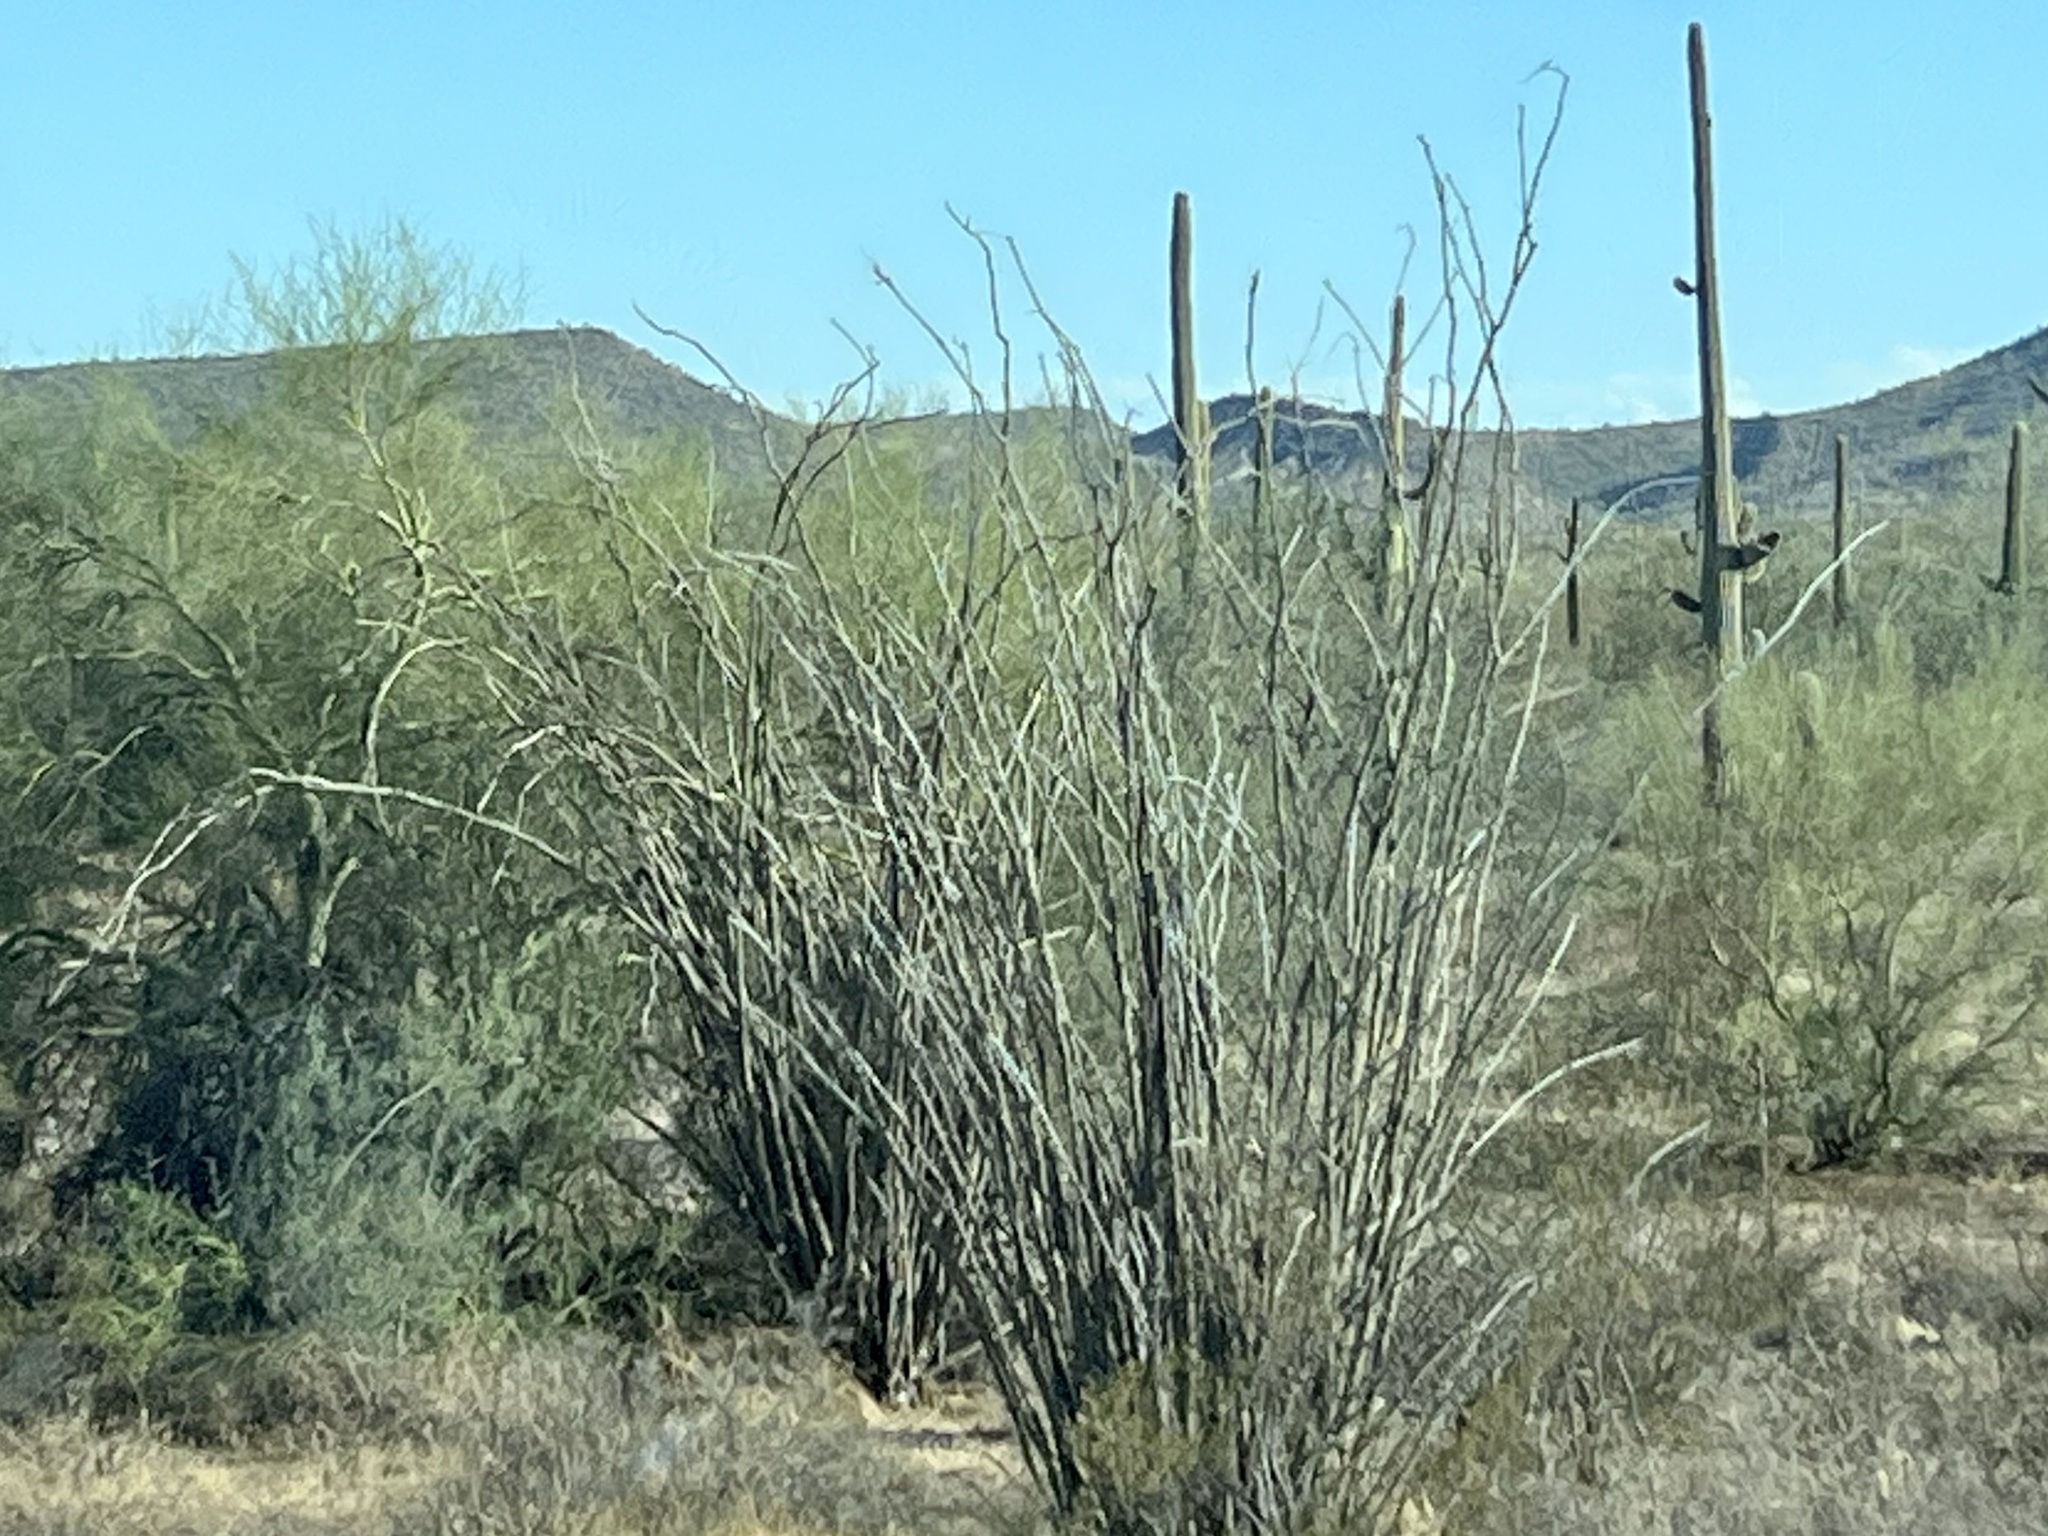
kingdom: Plantae
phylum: Tracheophyta
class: Magnoliopsida
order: Ericales
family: Fouquieriaceae
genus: Fouquieria
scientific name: Fouquieria splendens
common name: Vine-cactus
